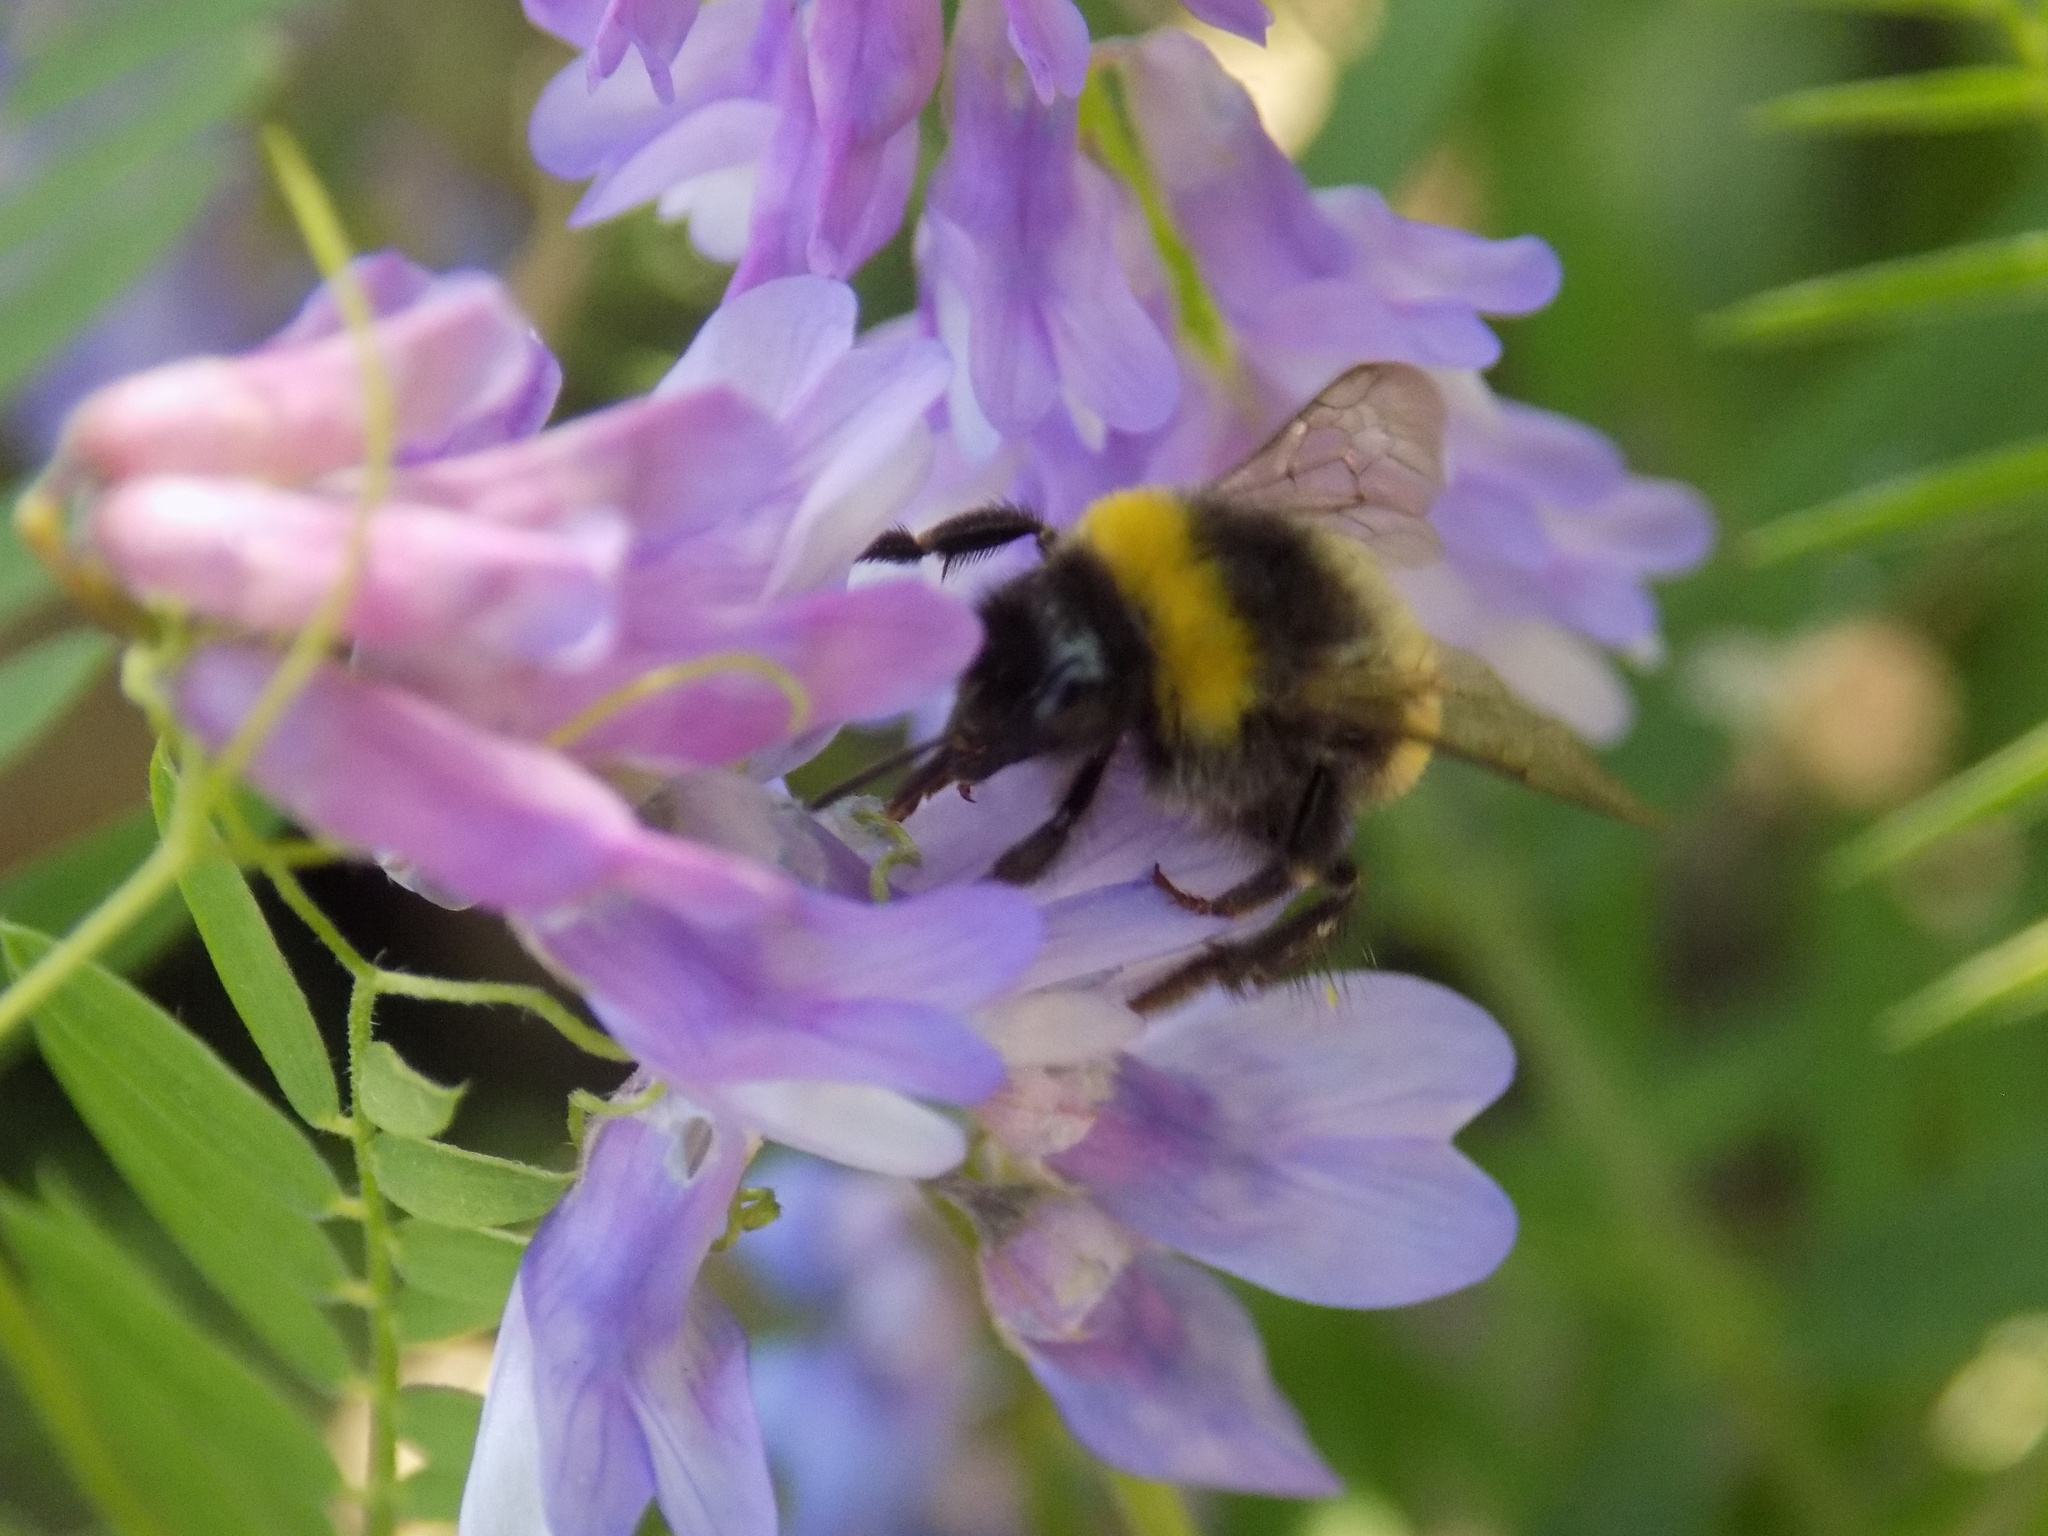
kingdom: Animalia
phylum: Arthropoda
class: Insecta
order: Hymenoptera
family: Apidae
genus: Bombus
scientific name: Bombus
